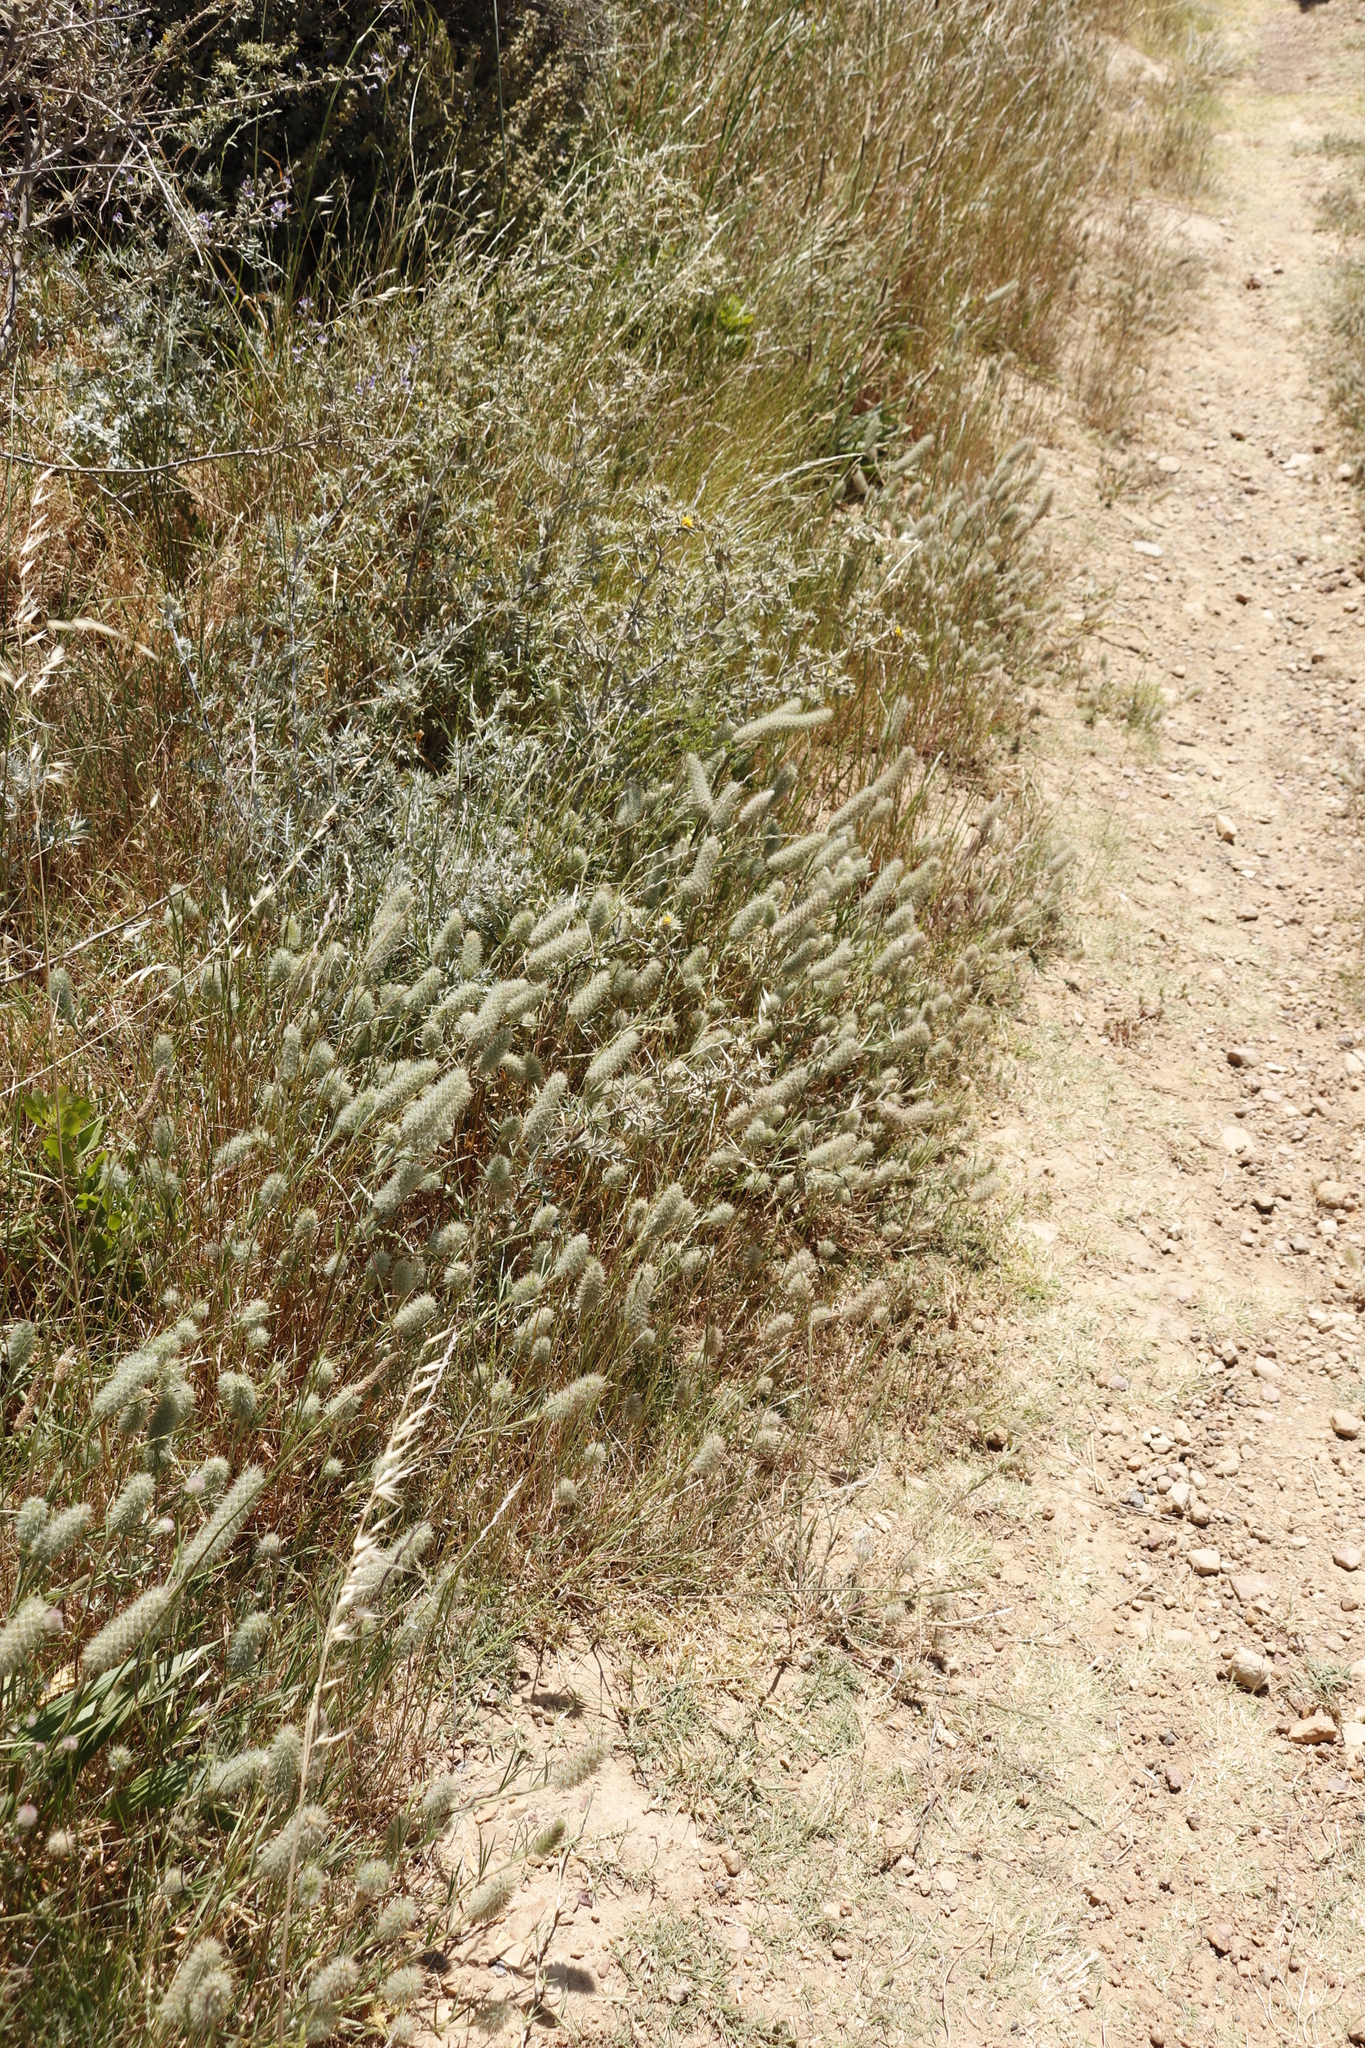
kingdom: Plantae
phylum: Tracheophyta
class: Magnoliopsida
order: Fabales
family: Fabaceae
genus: Trifolium
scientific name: Trifolium angustifolium
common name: Narrow clover
